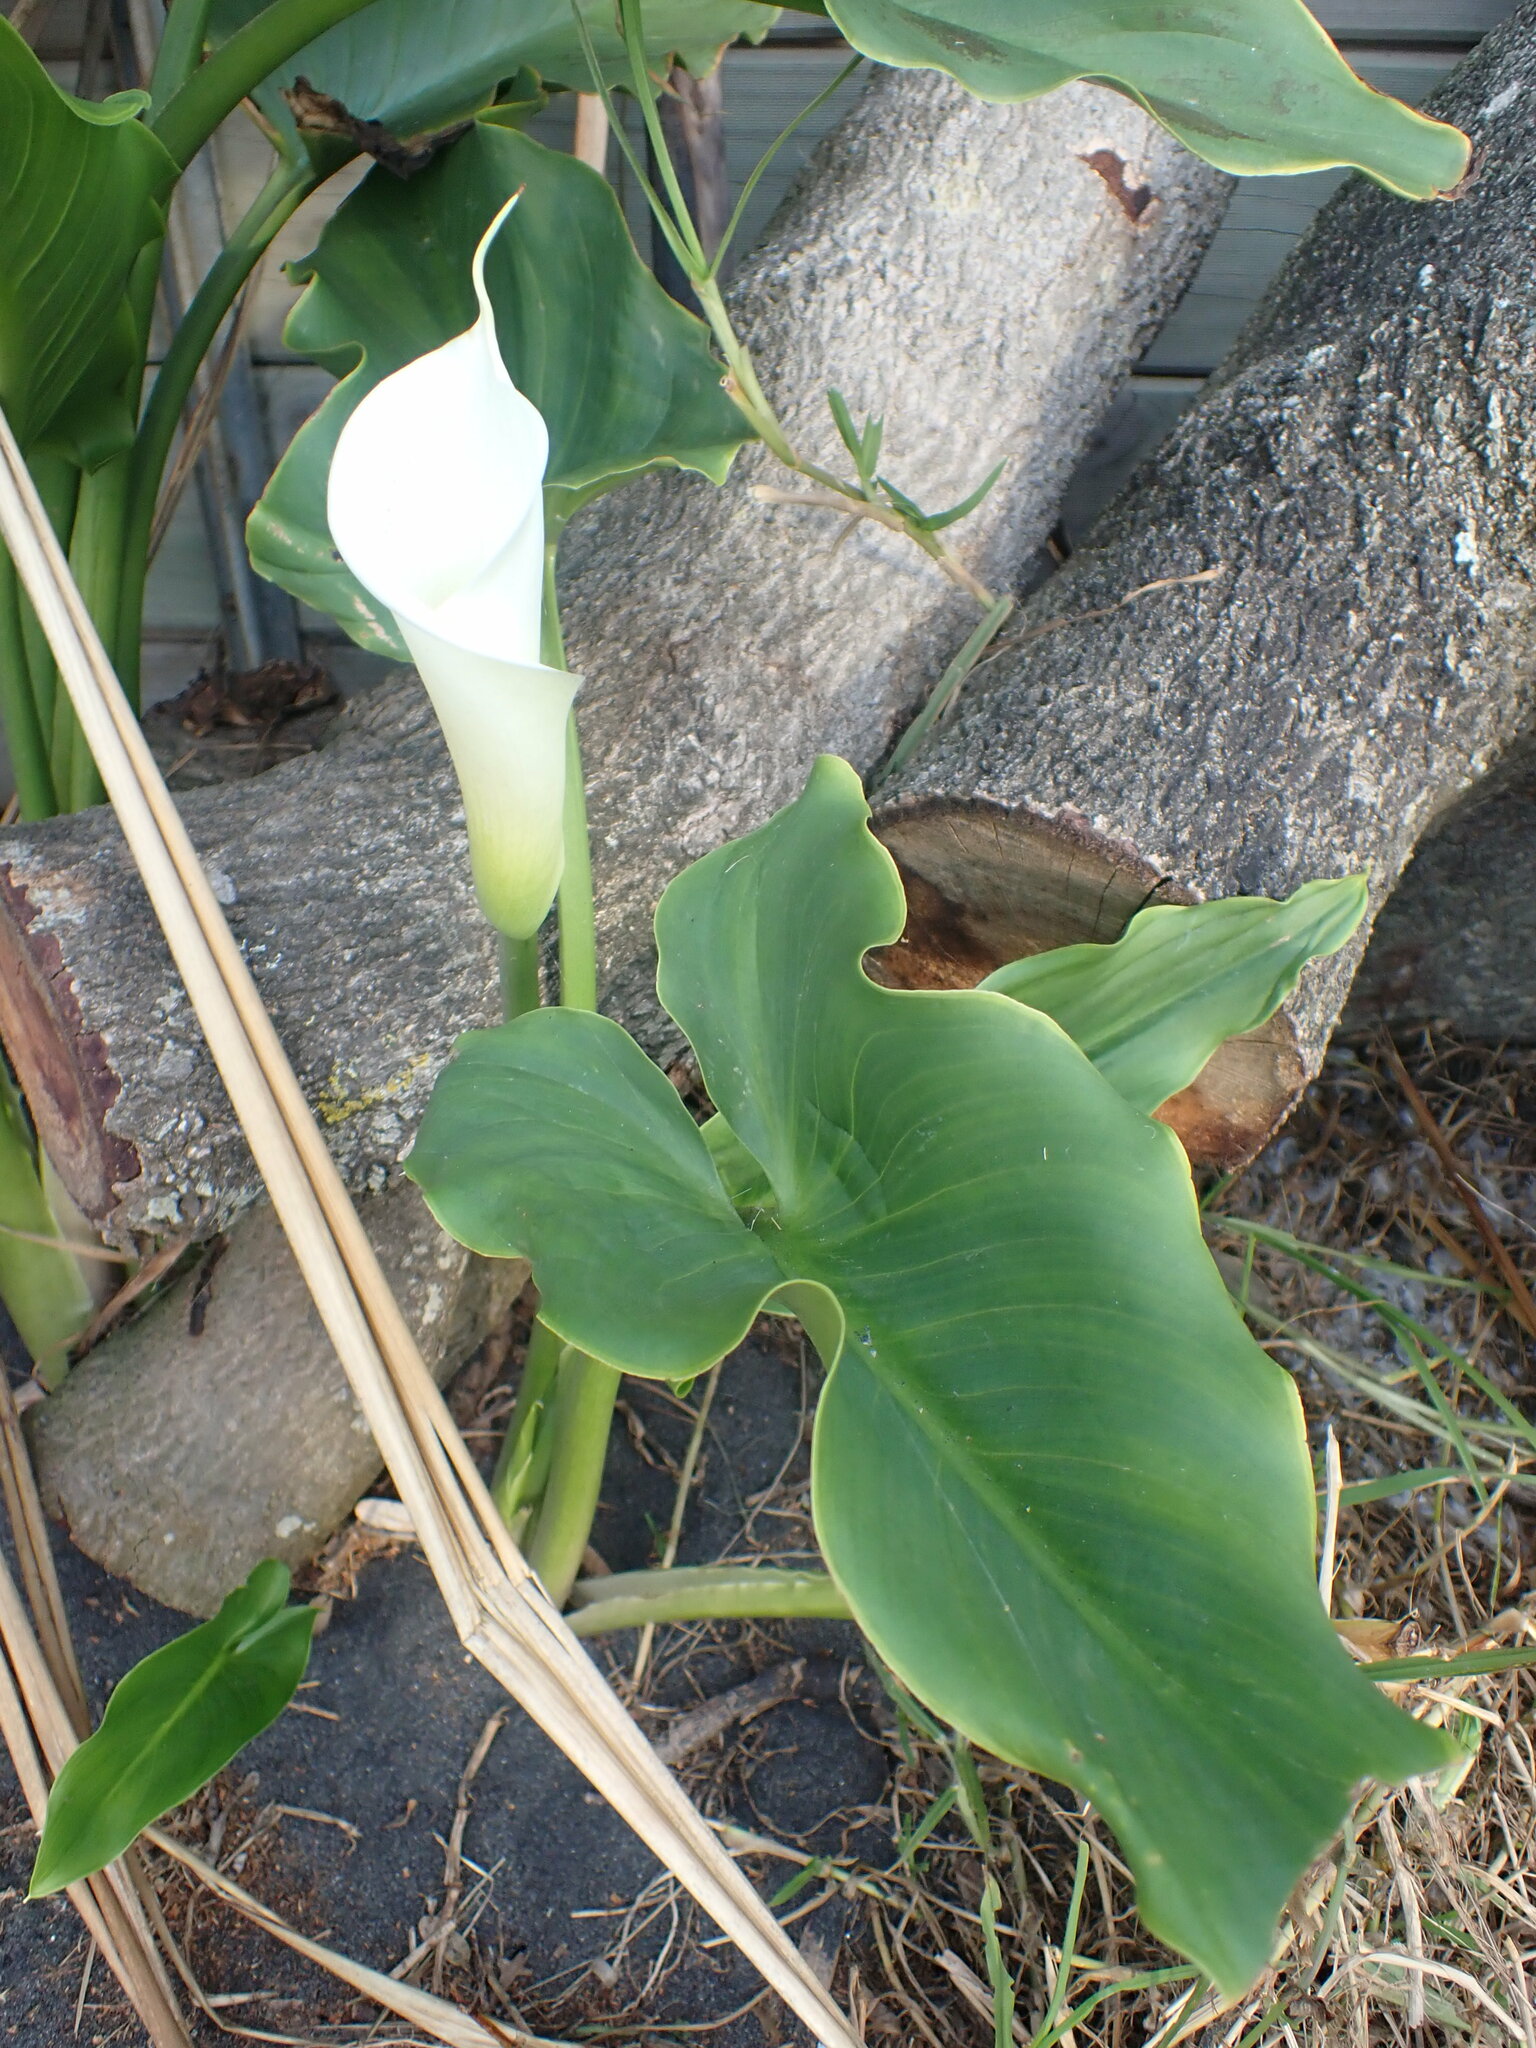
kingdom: Plantae
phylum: Tracheophyta
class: Liliopsida
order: Alismatales
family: Araceae
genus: Zantedeschia
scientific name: Zantedeschia aethiopica
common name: Altar-lily
